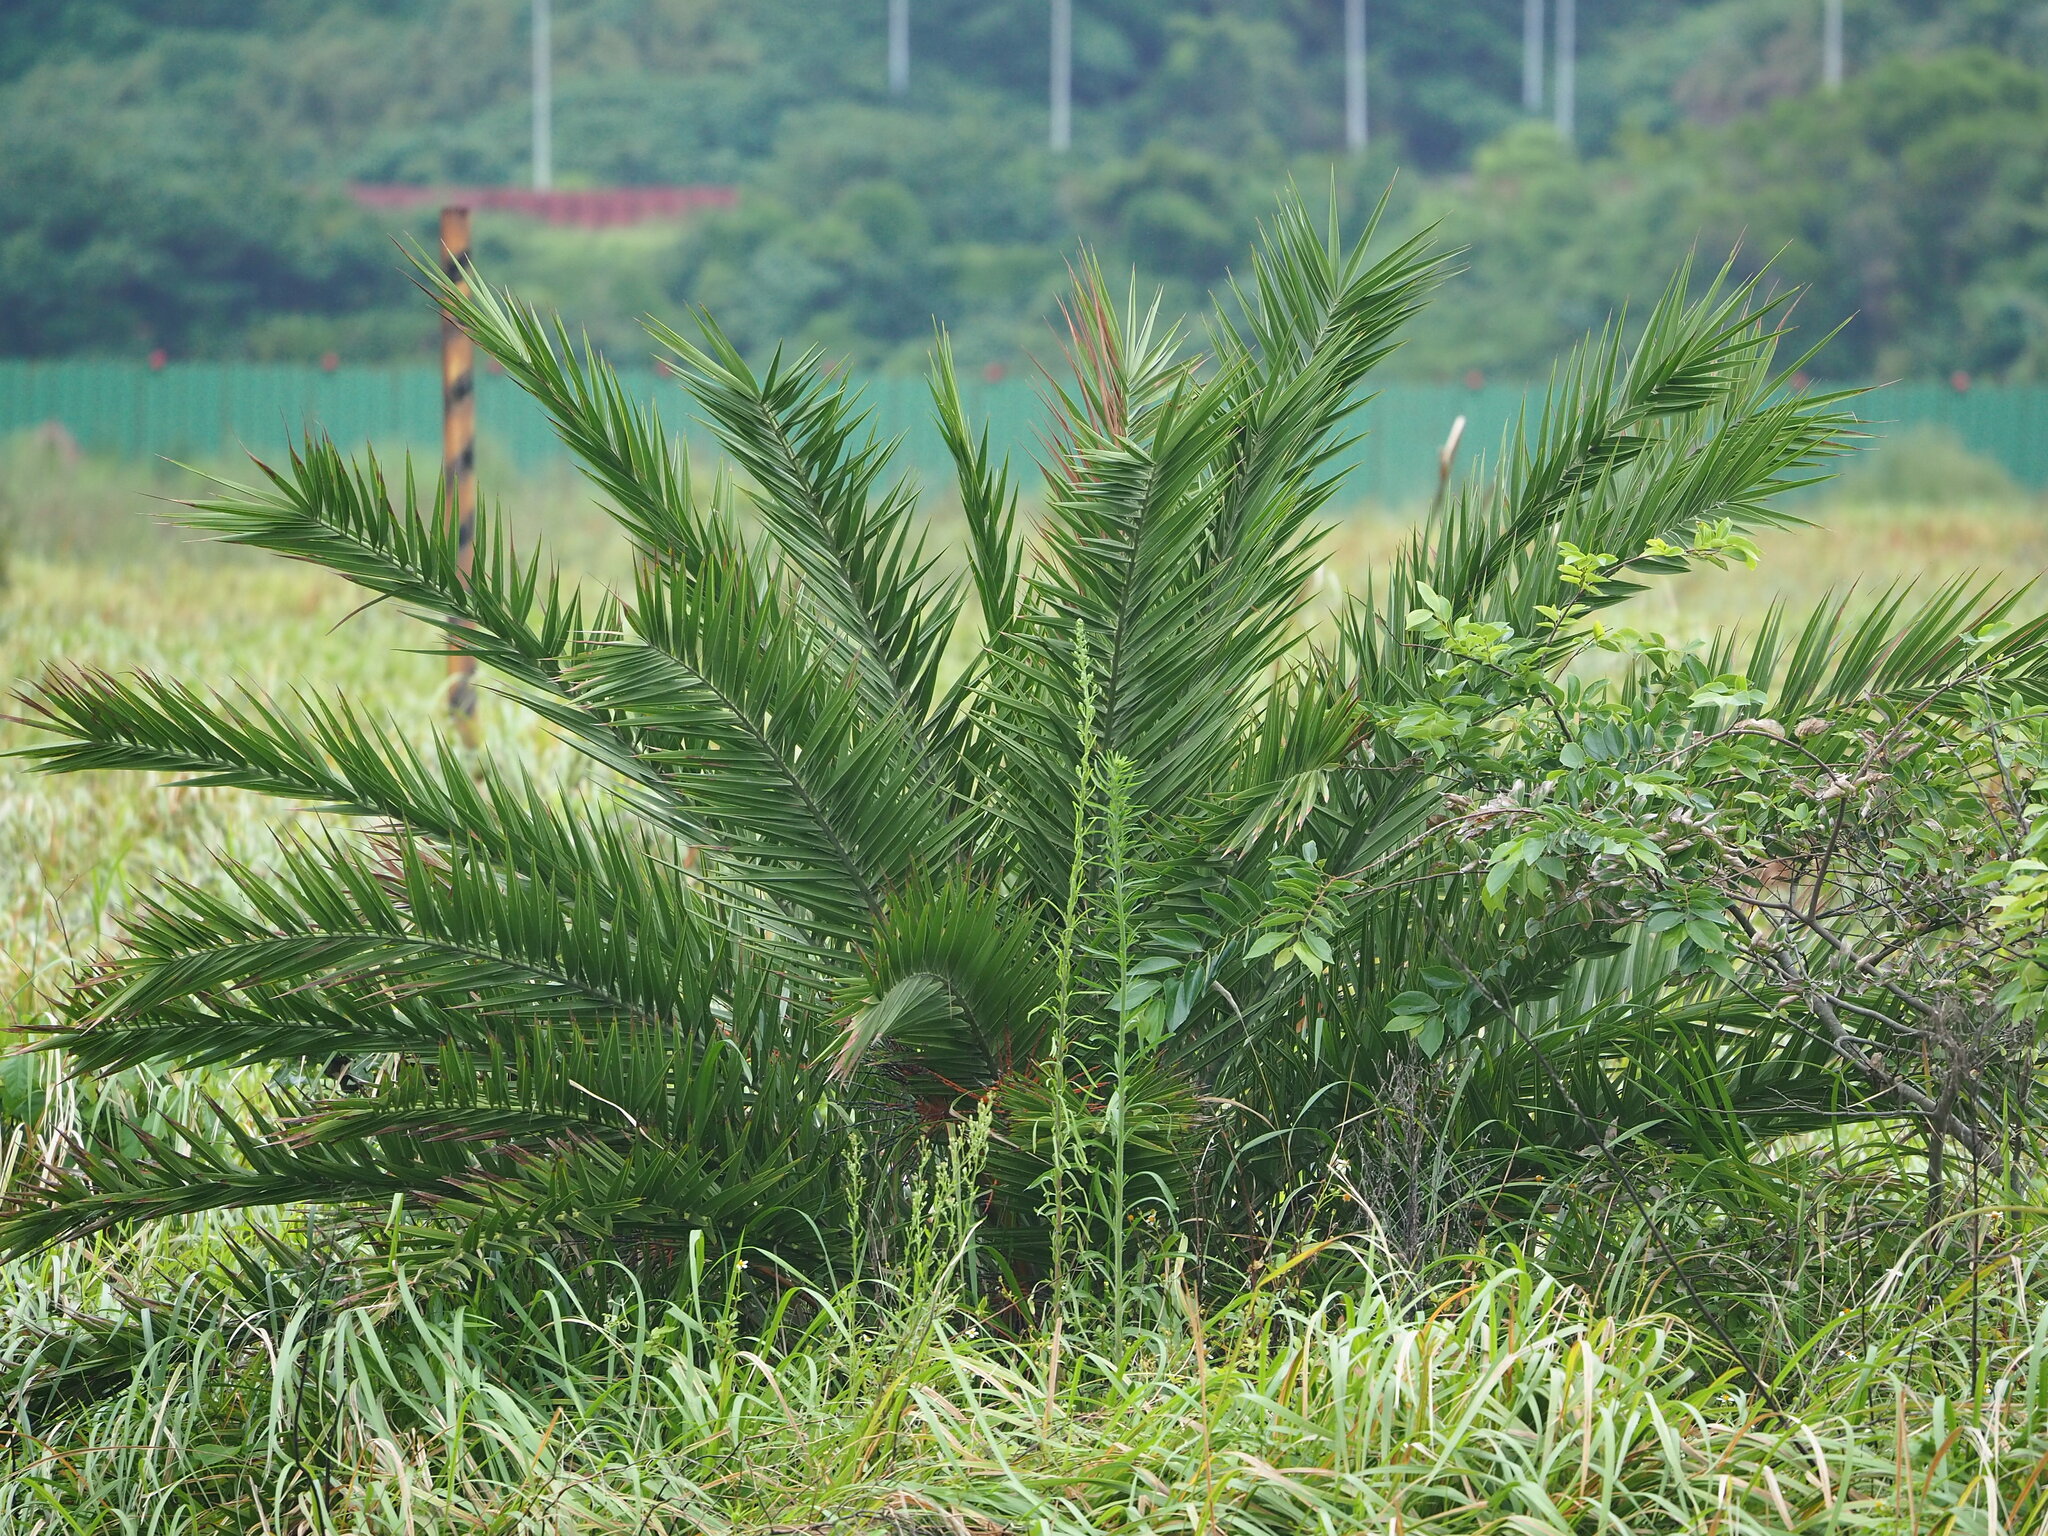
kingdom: Plantae
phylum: Tracheophyta
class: Liliopsida
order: Arecales
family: Arecaceae
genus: Phoenix
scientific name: Phoenix loureiroi
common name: Loureiro's palm
